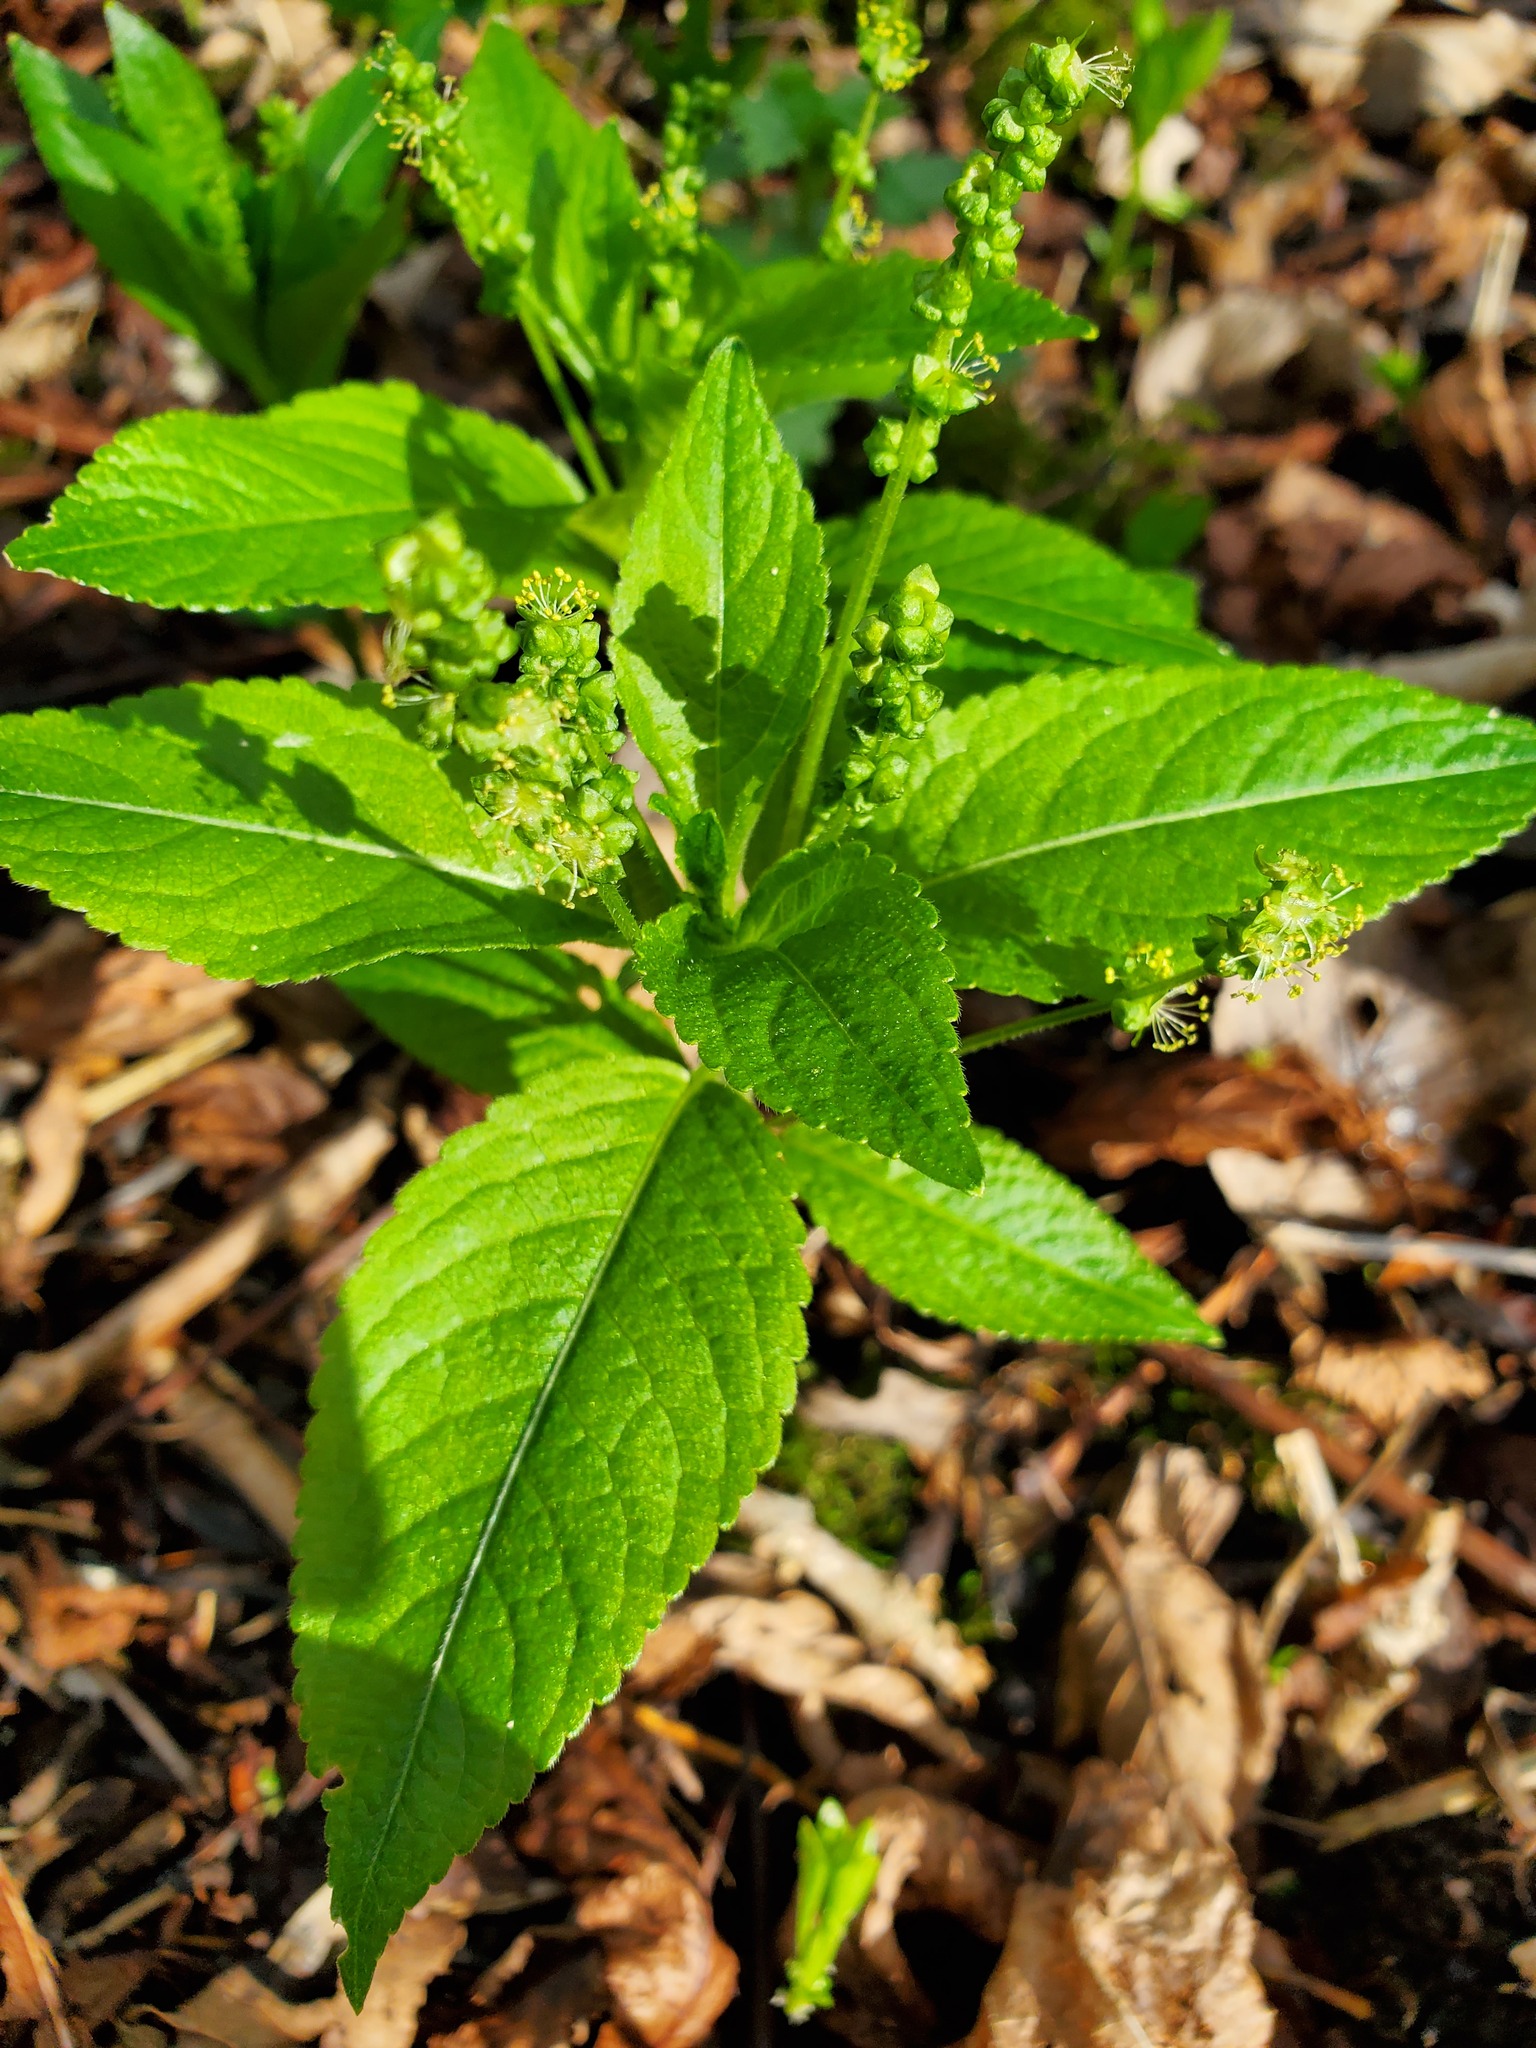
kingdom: Plantae
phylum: Tracheophyta
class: Magnoliopsida
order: Malpighiales
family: Euphorbiaceae
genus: Mercurialis
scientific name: Mercurialis perennis
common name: Dog mercury
